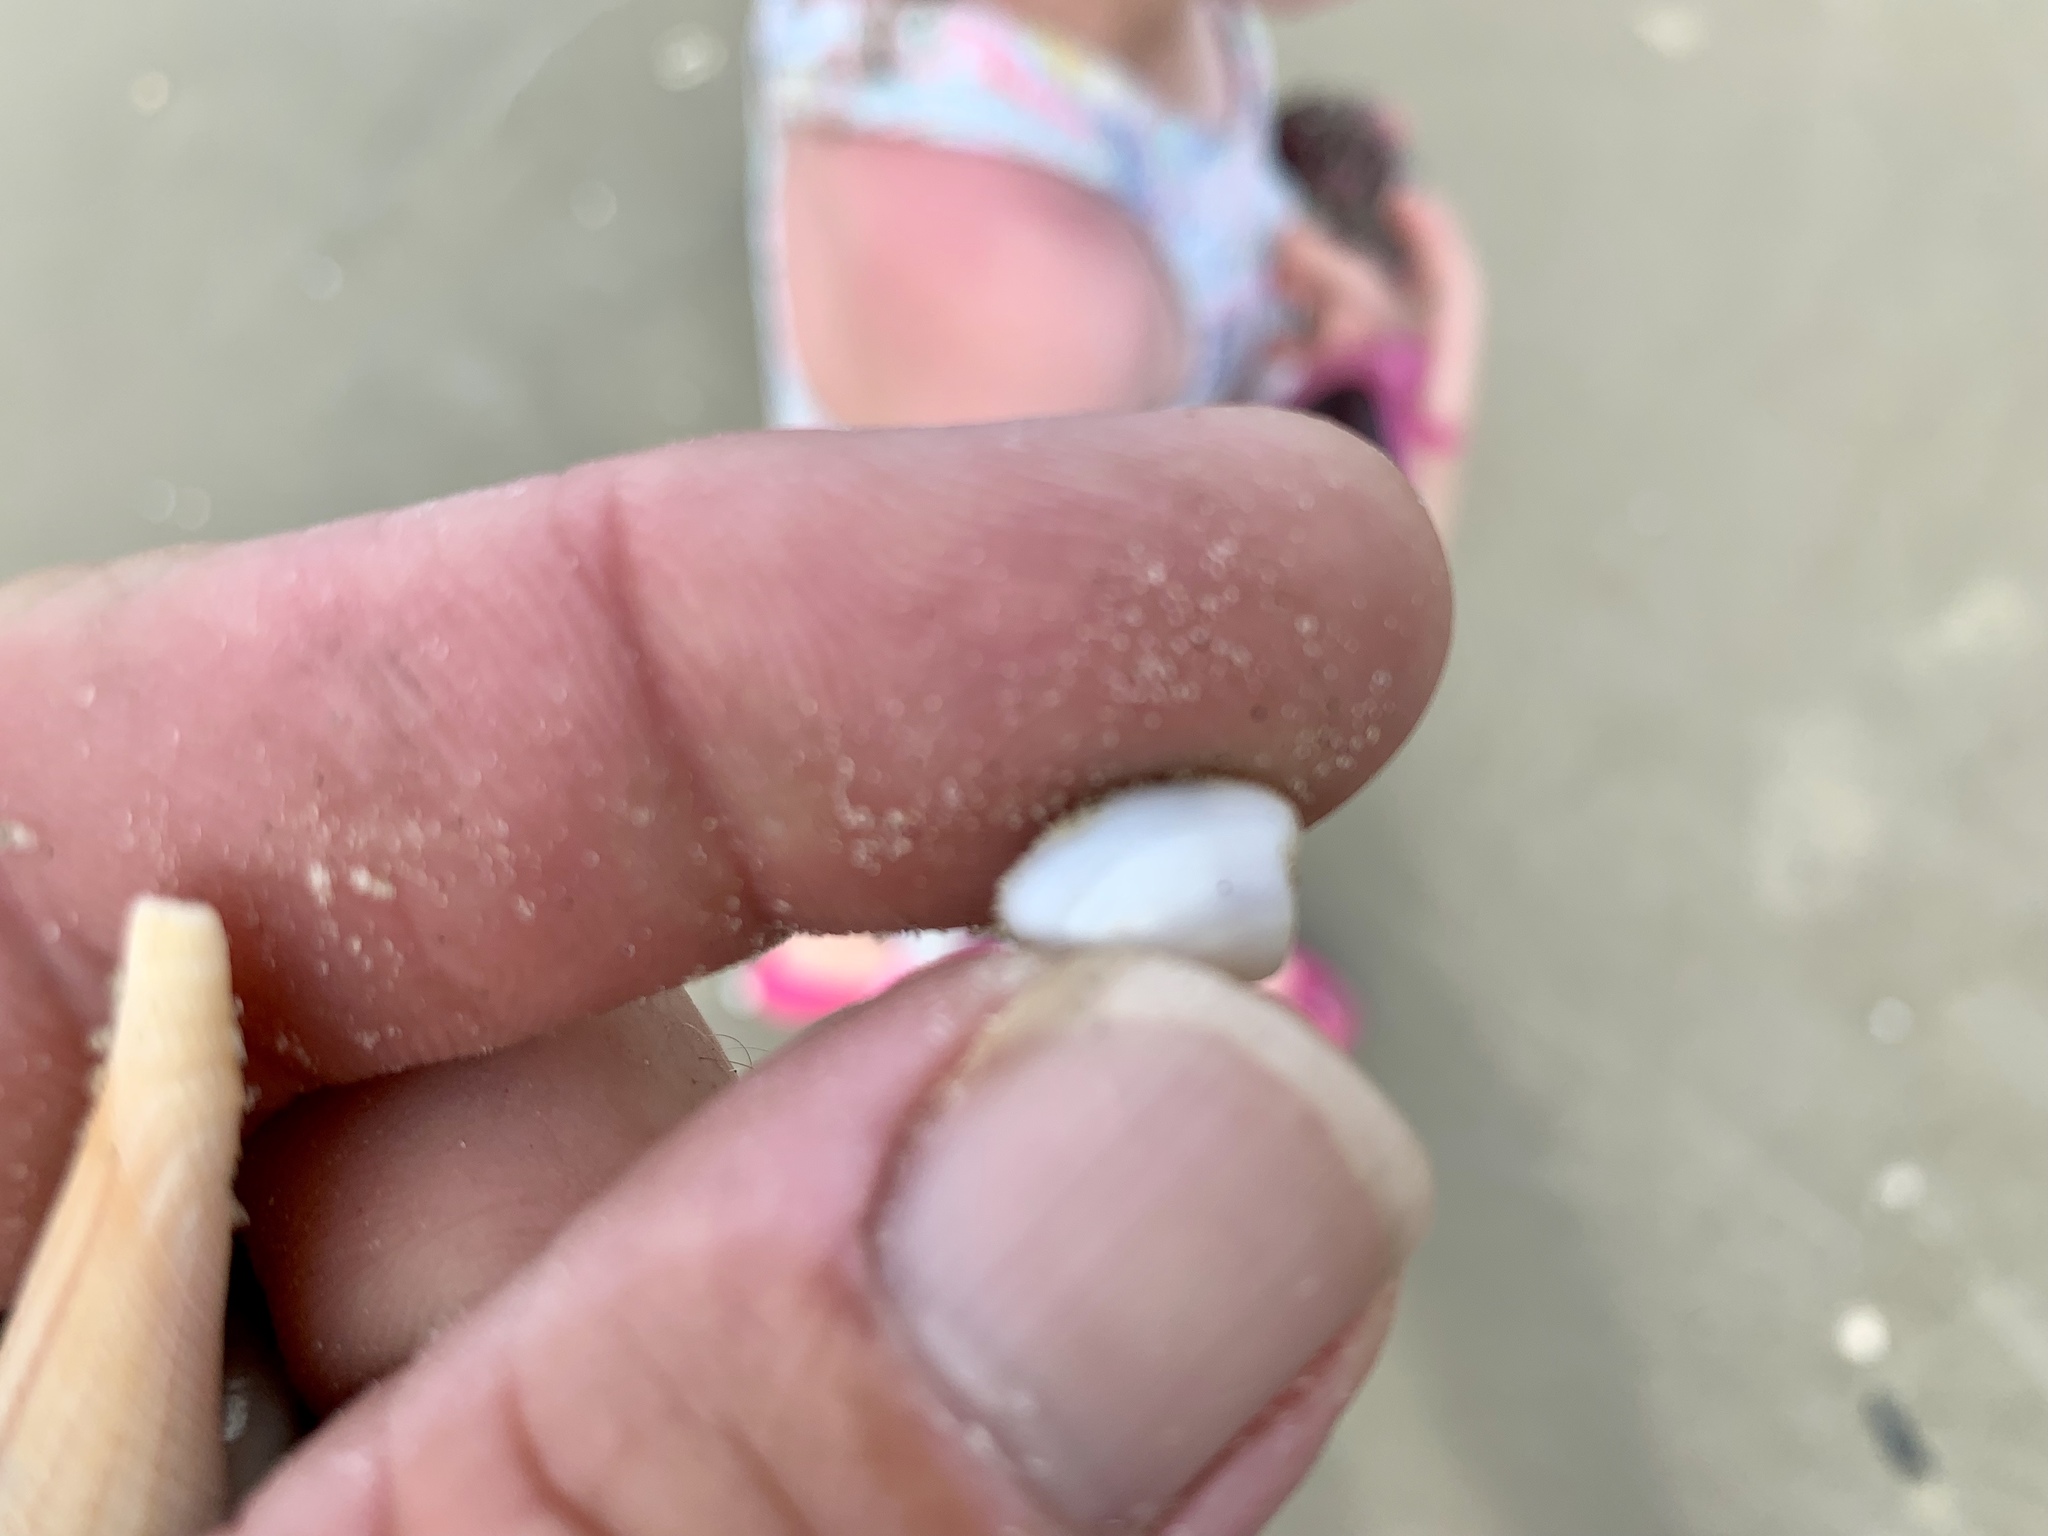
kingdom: Animalia
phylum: Mollusca
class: Bivalvia
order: Cardiida
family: Donacidae
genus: Donax
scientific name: Donax texasianus
